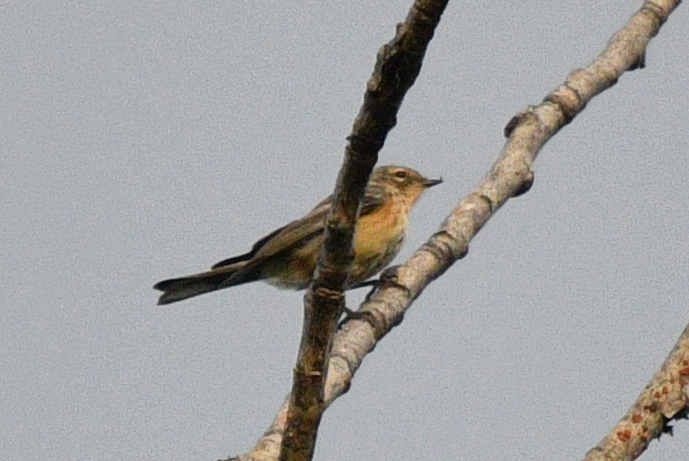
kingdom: Animalia
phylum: Chordata
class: Aves
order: Passeriformes
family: Parulidae
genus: Setophaga
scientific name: Setophaga coronata
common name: Myrtle warbler
